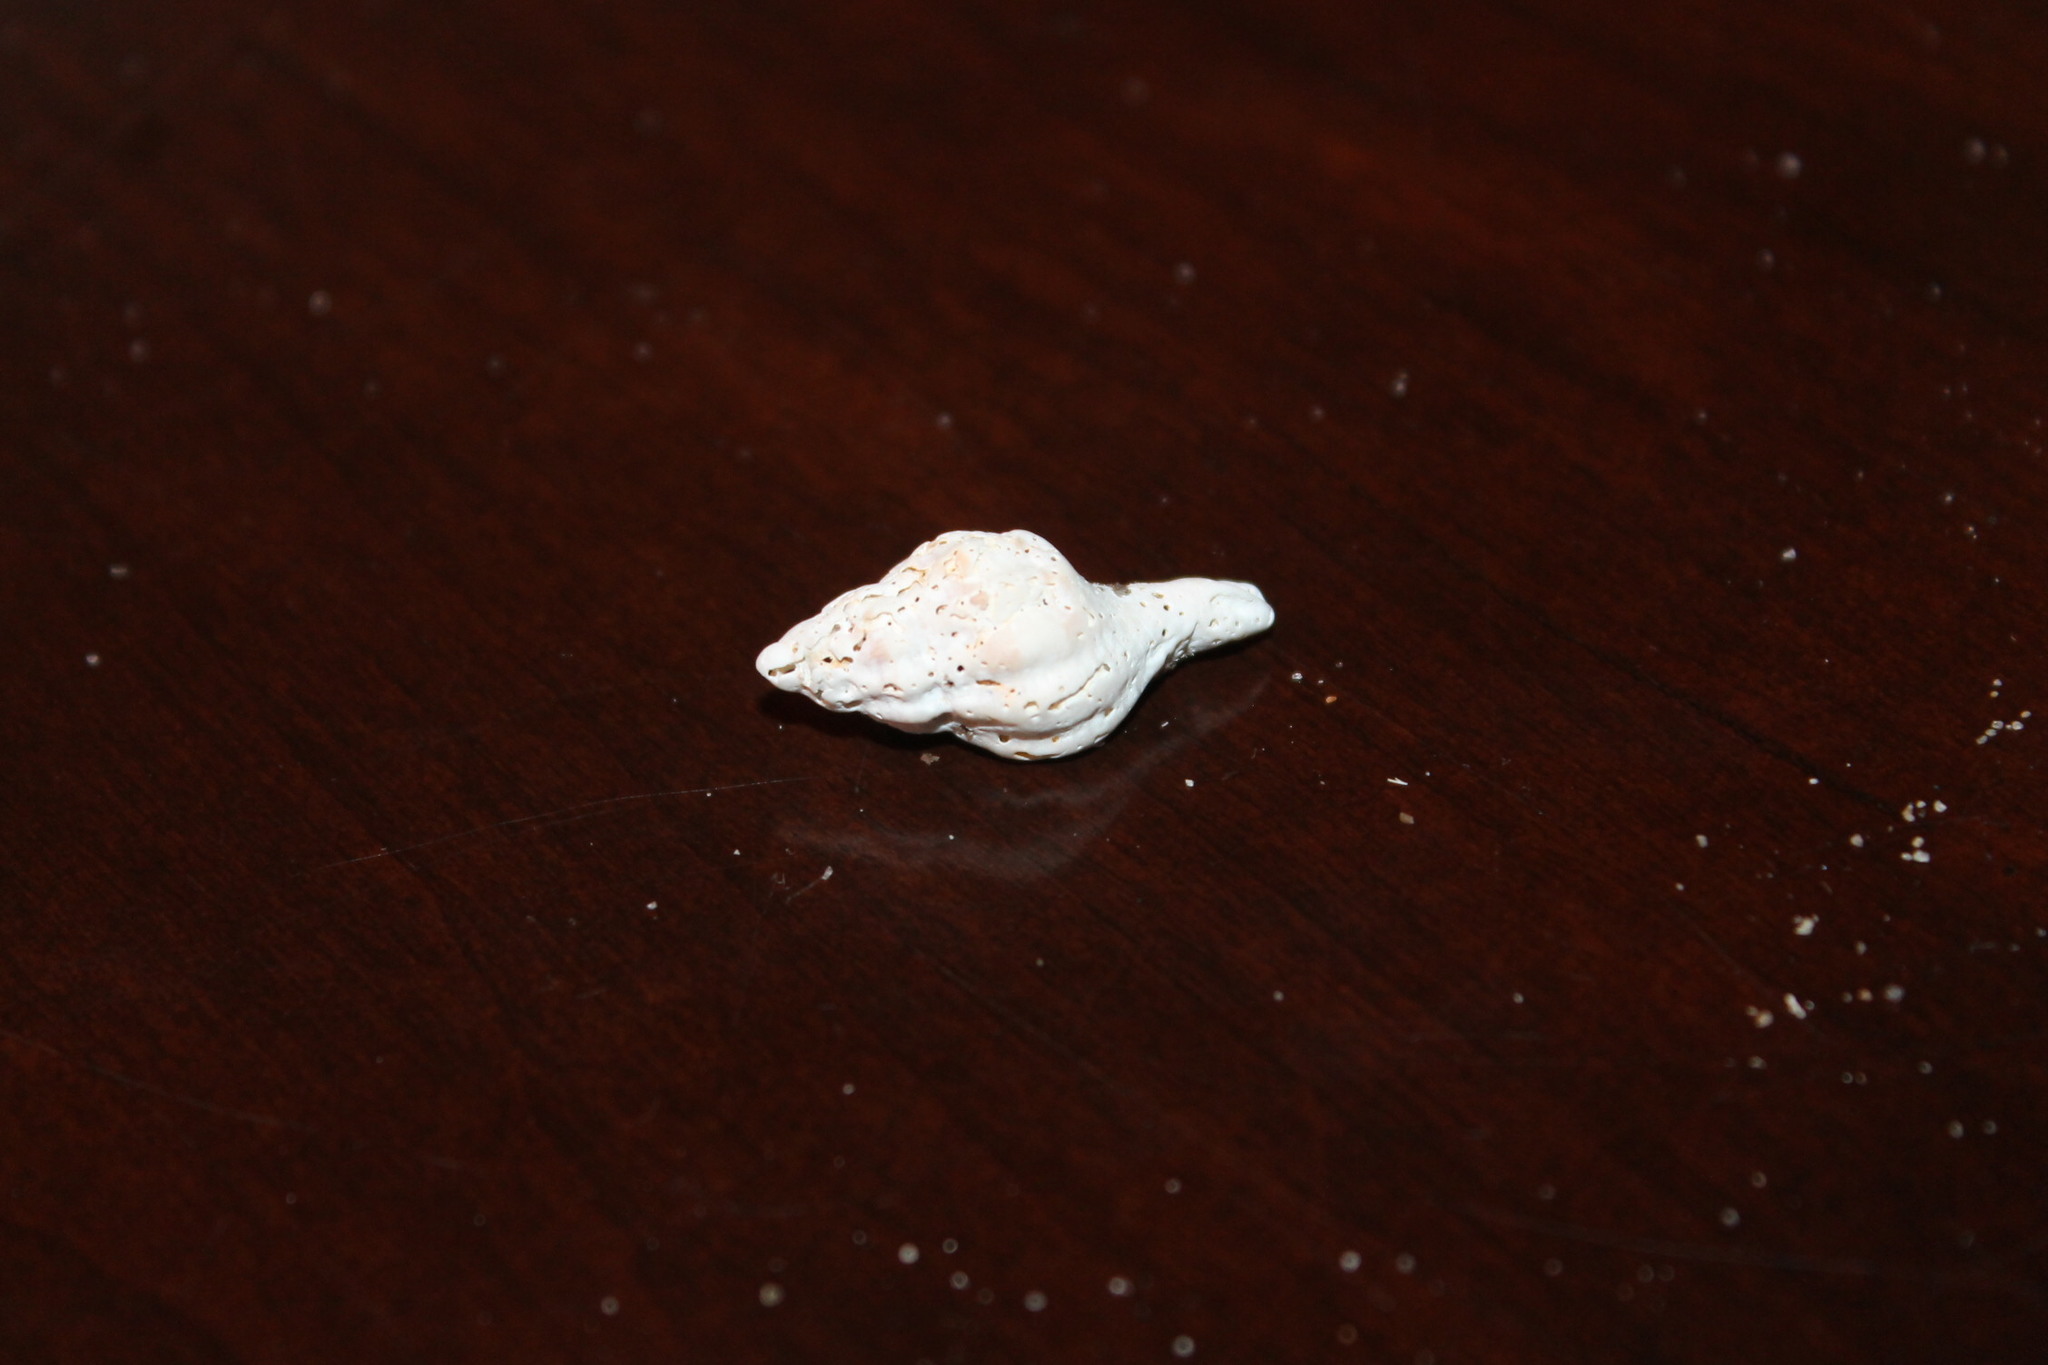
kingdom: Animalia
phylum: Mollusca
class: Gastropoda
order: Neogastropoda
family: Muricidae
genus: Urosalpinx
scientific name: Urosalpinx cinerea
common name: American sting winkle
